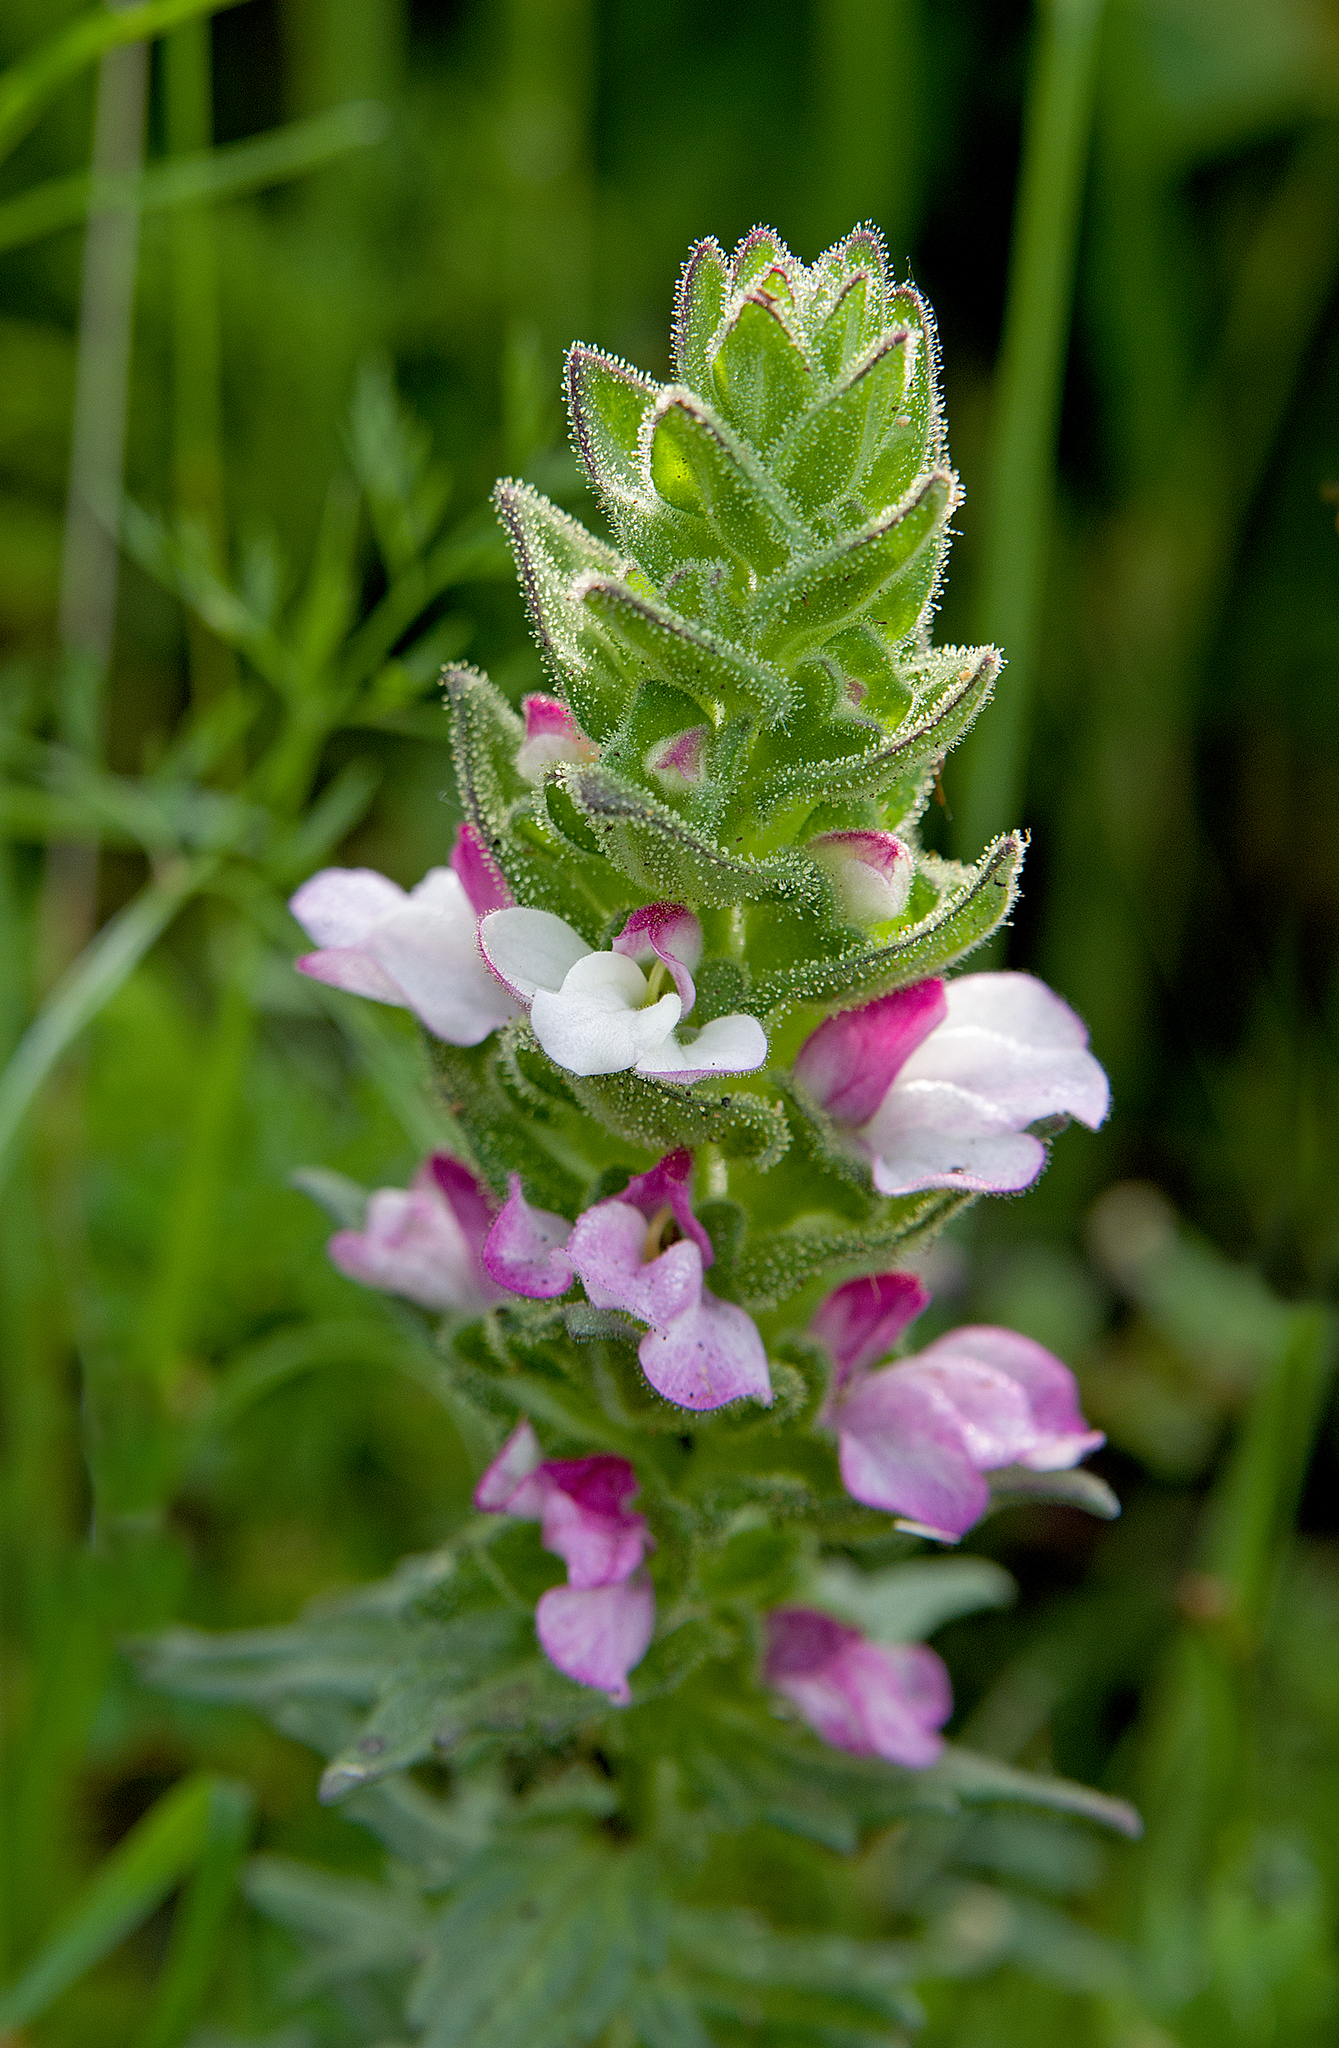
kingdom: Plantae
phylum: Tracheophyta
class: Magnoliopsida
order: Lamiales
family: Orobanchaceae
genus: Bellardia
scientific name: Bellardia trixago
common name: Mediterranean lineseed
